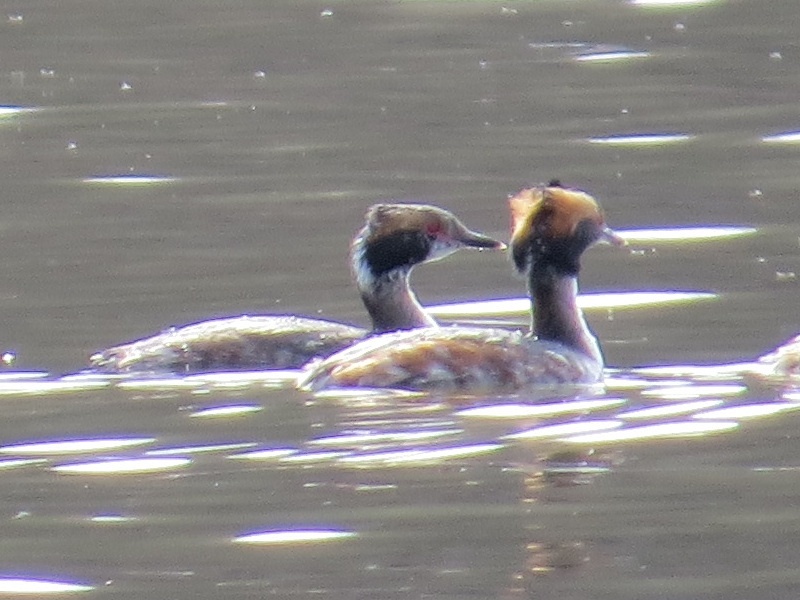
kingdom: Animalia
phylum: Chordata
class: Aves
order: Podicipediformes
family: Podicipedidae
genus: Podiceps
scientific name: Podiceps auritus
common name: Horned grebe
